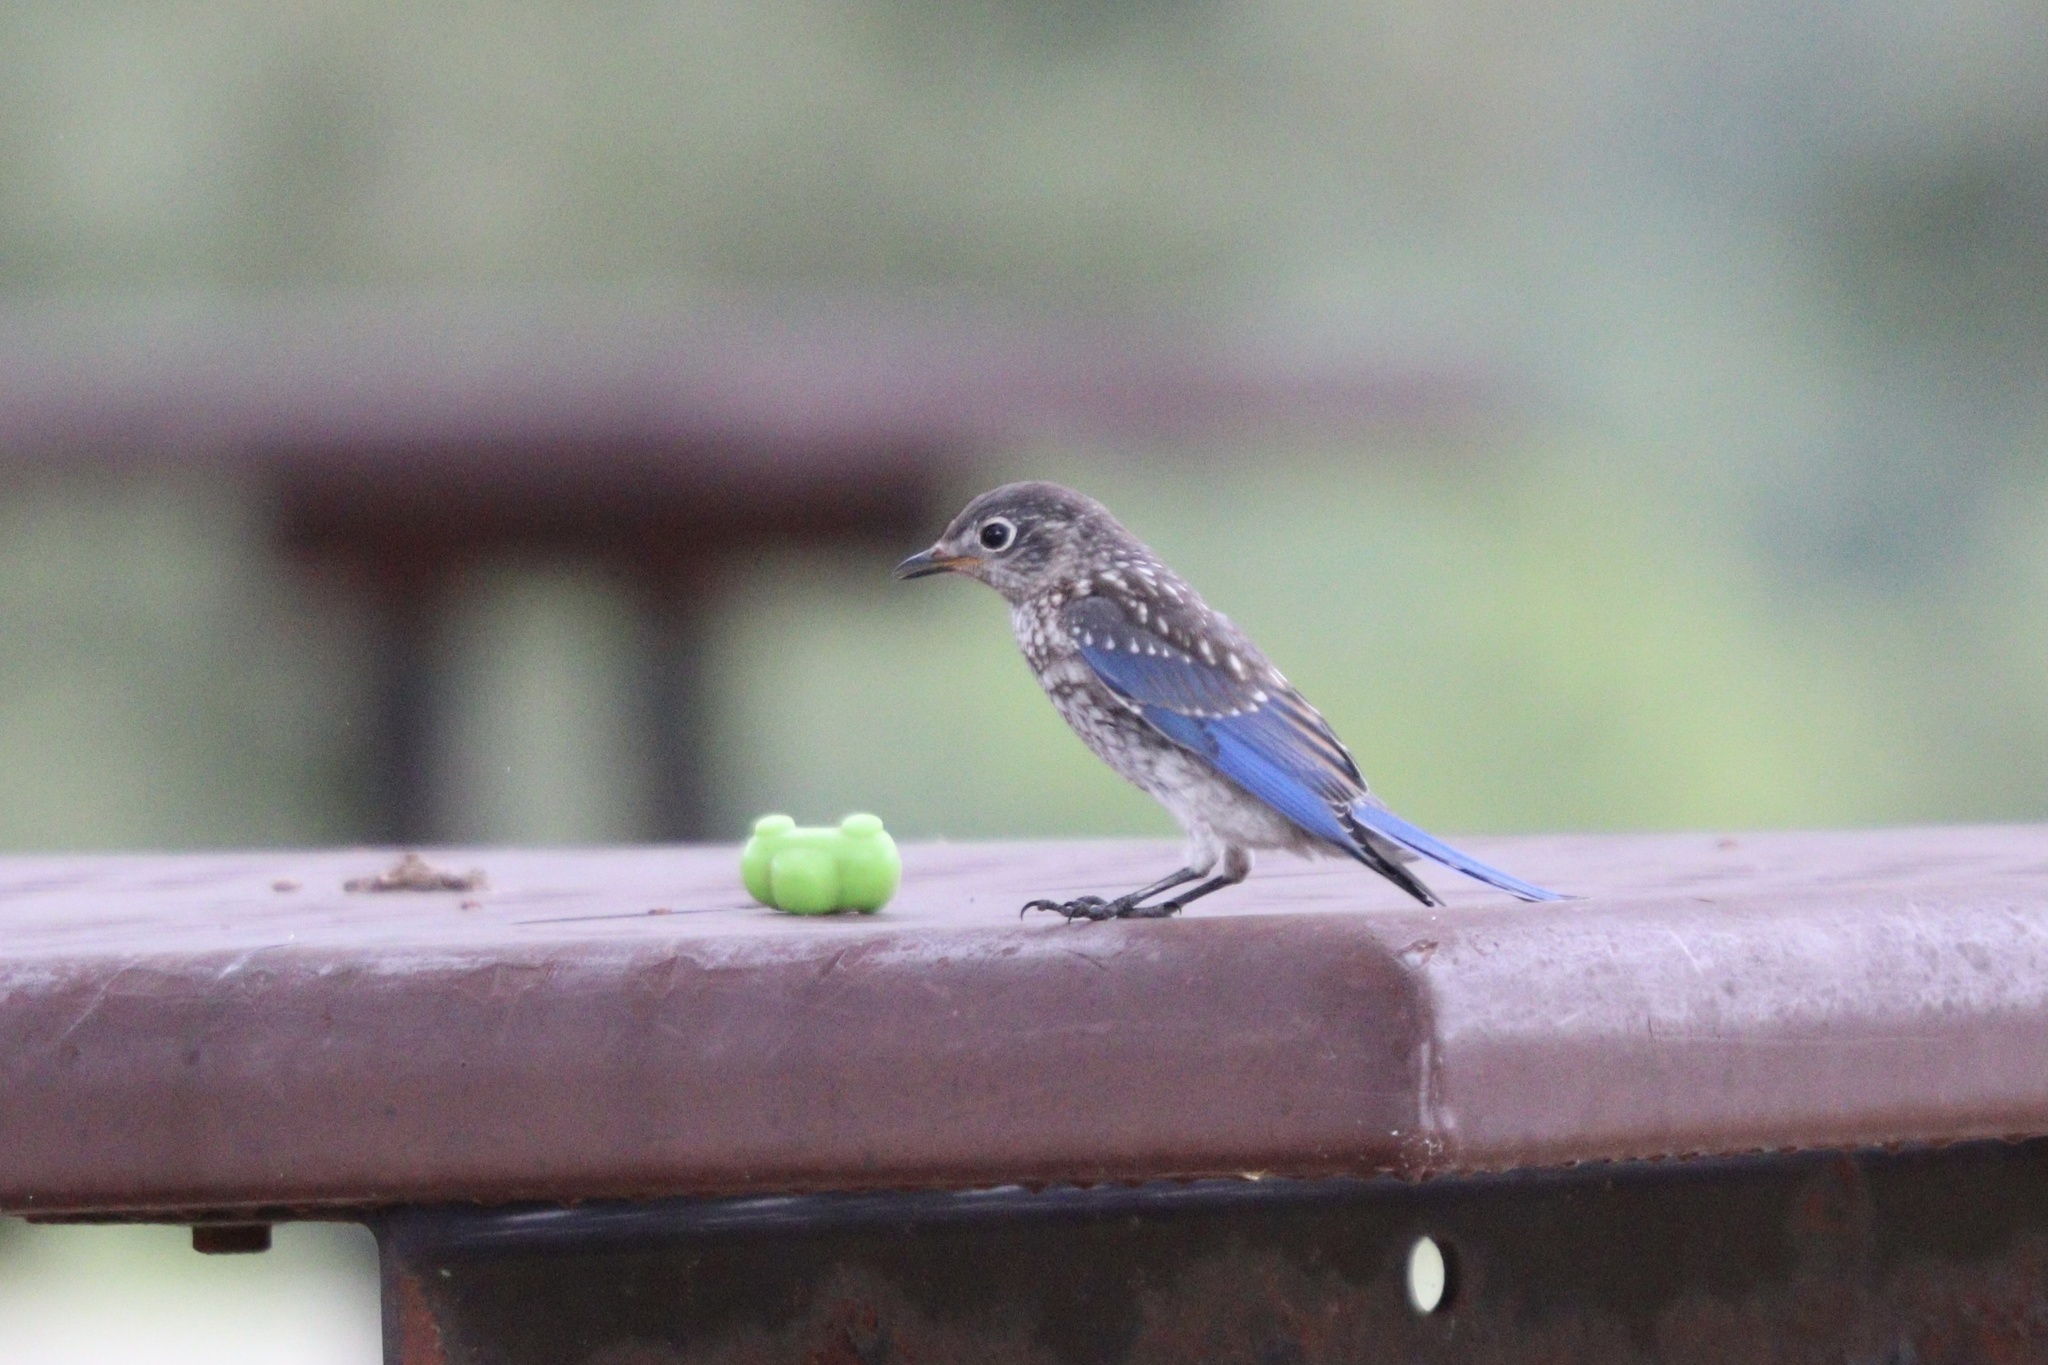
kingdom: Animalia
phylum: Chordata
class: Aves
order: Passeriformes
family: Turdidae
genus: Sialia
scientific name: Sialia sialis
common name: Eastern bluebird
